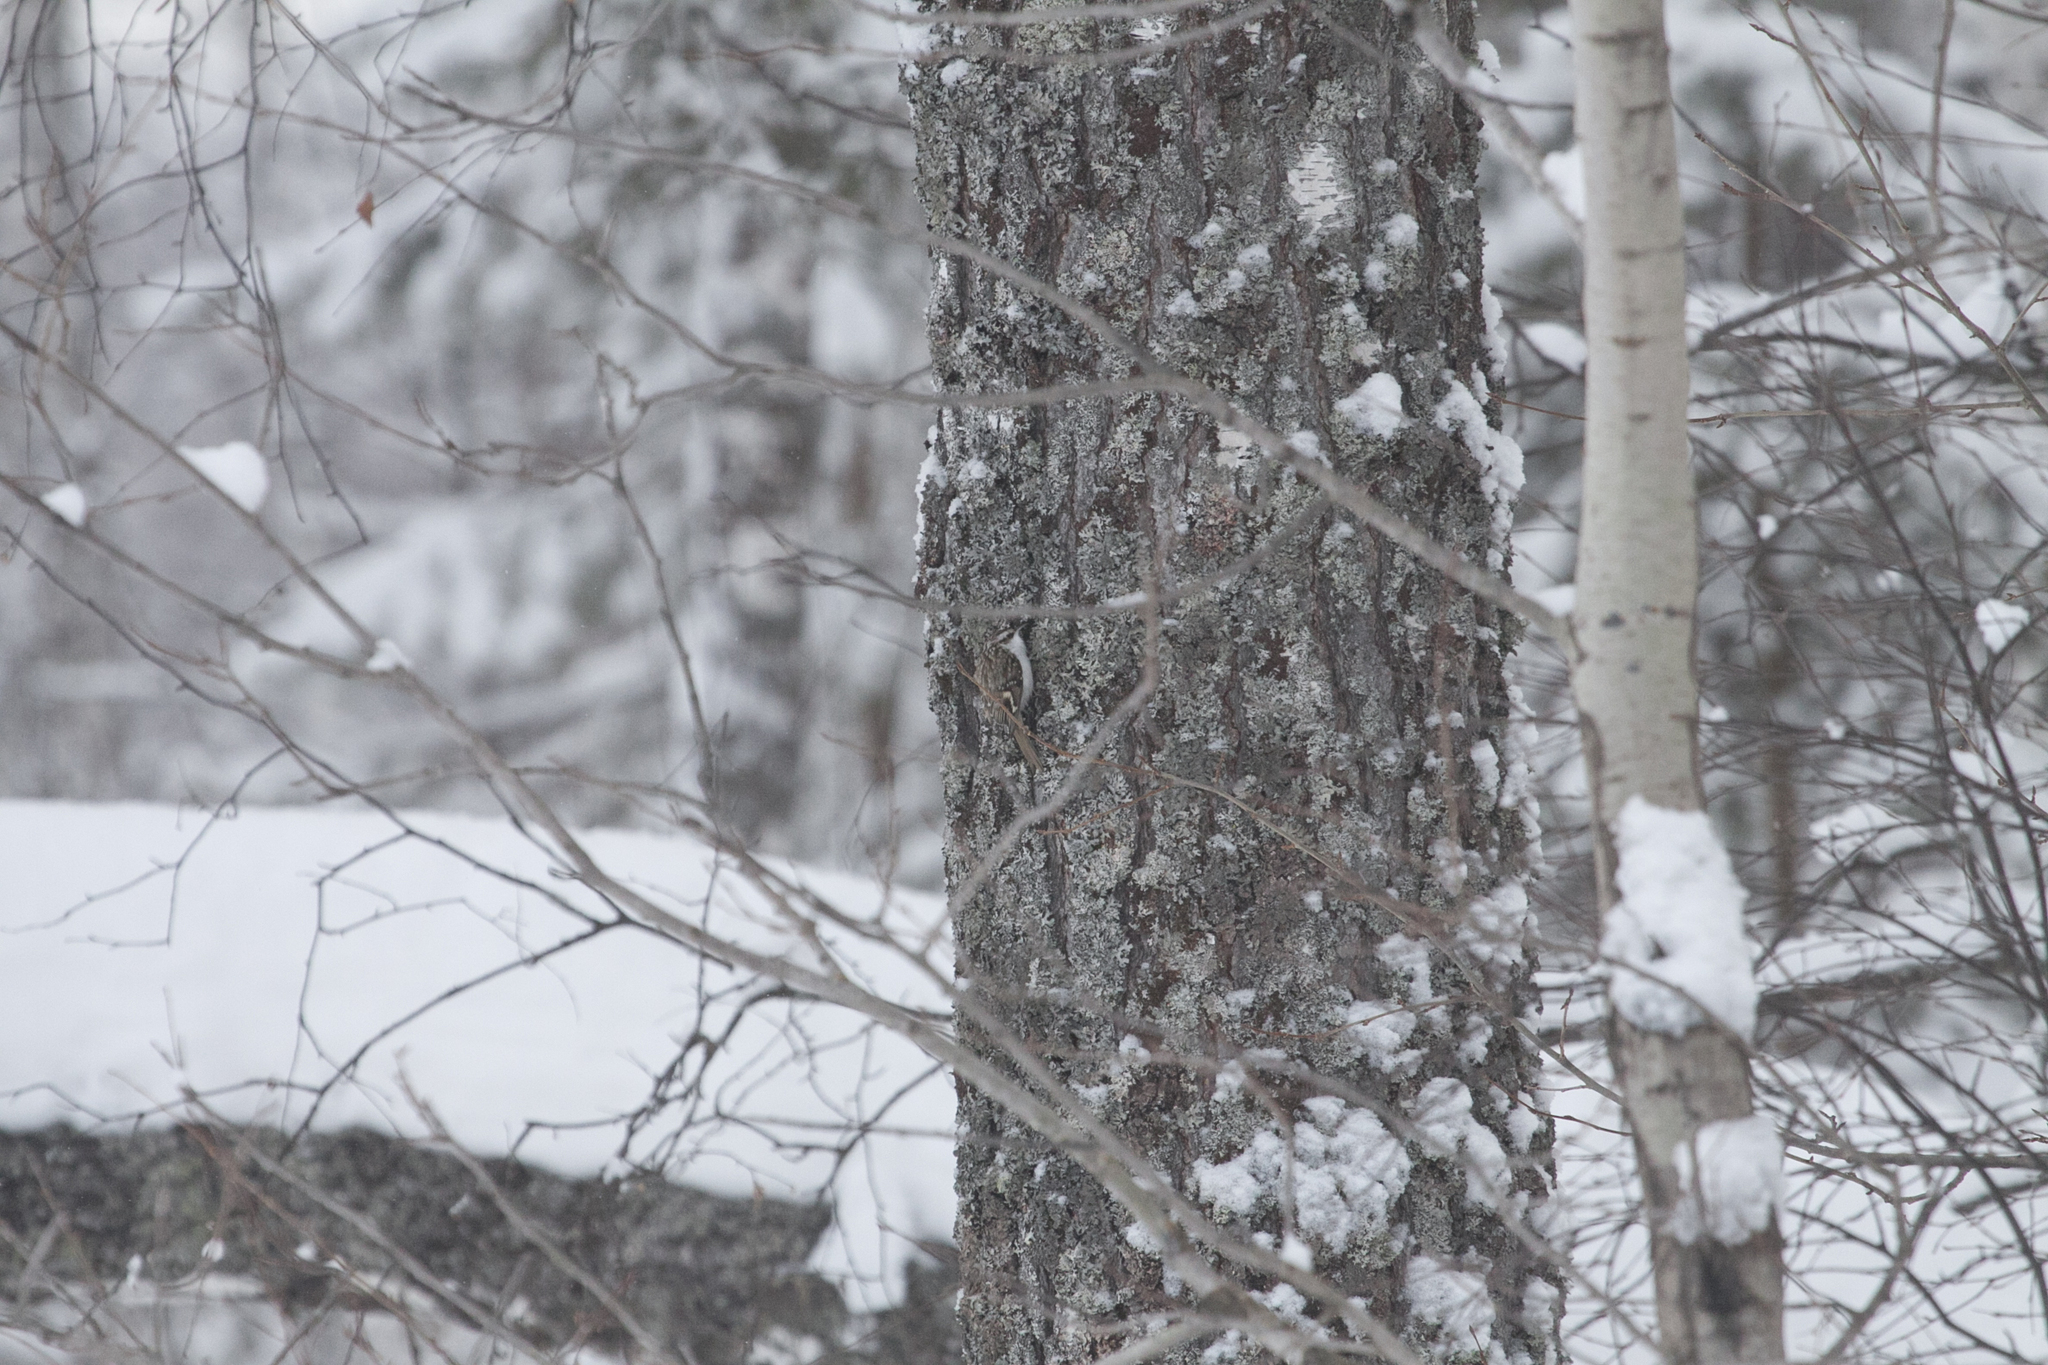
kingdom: Animalia
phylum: Chordata
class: Aves
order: Passeriformes
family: Certhiidae
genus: Certhia
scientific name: Certhia familiaris
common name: Eurasian treecreeper
